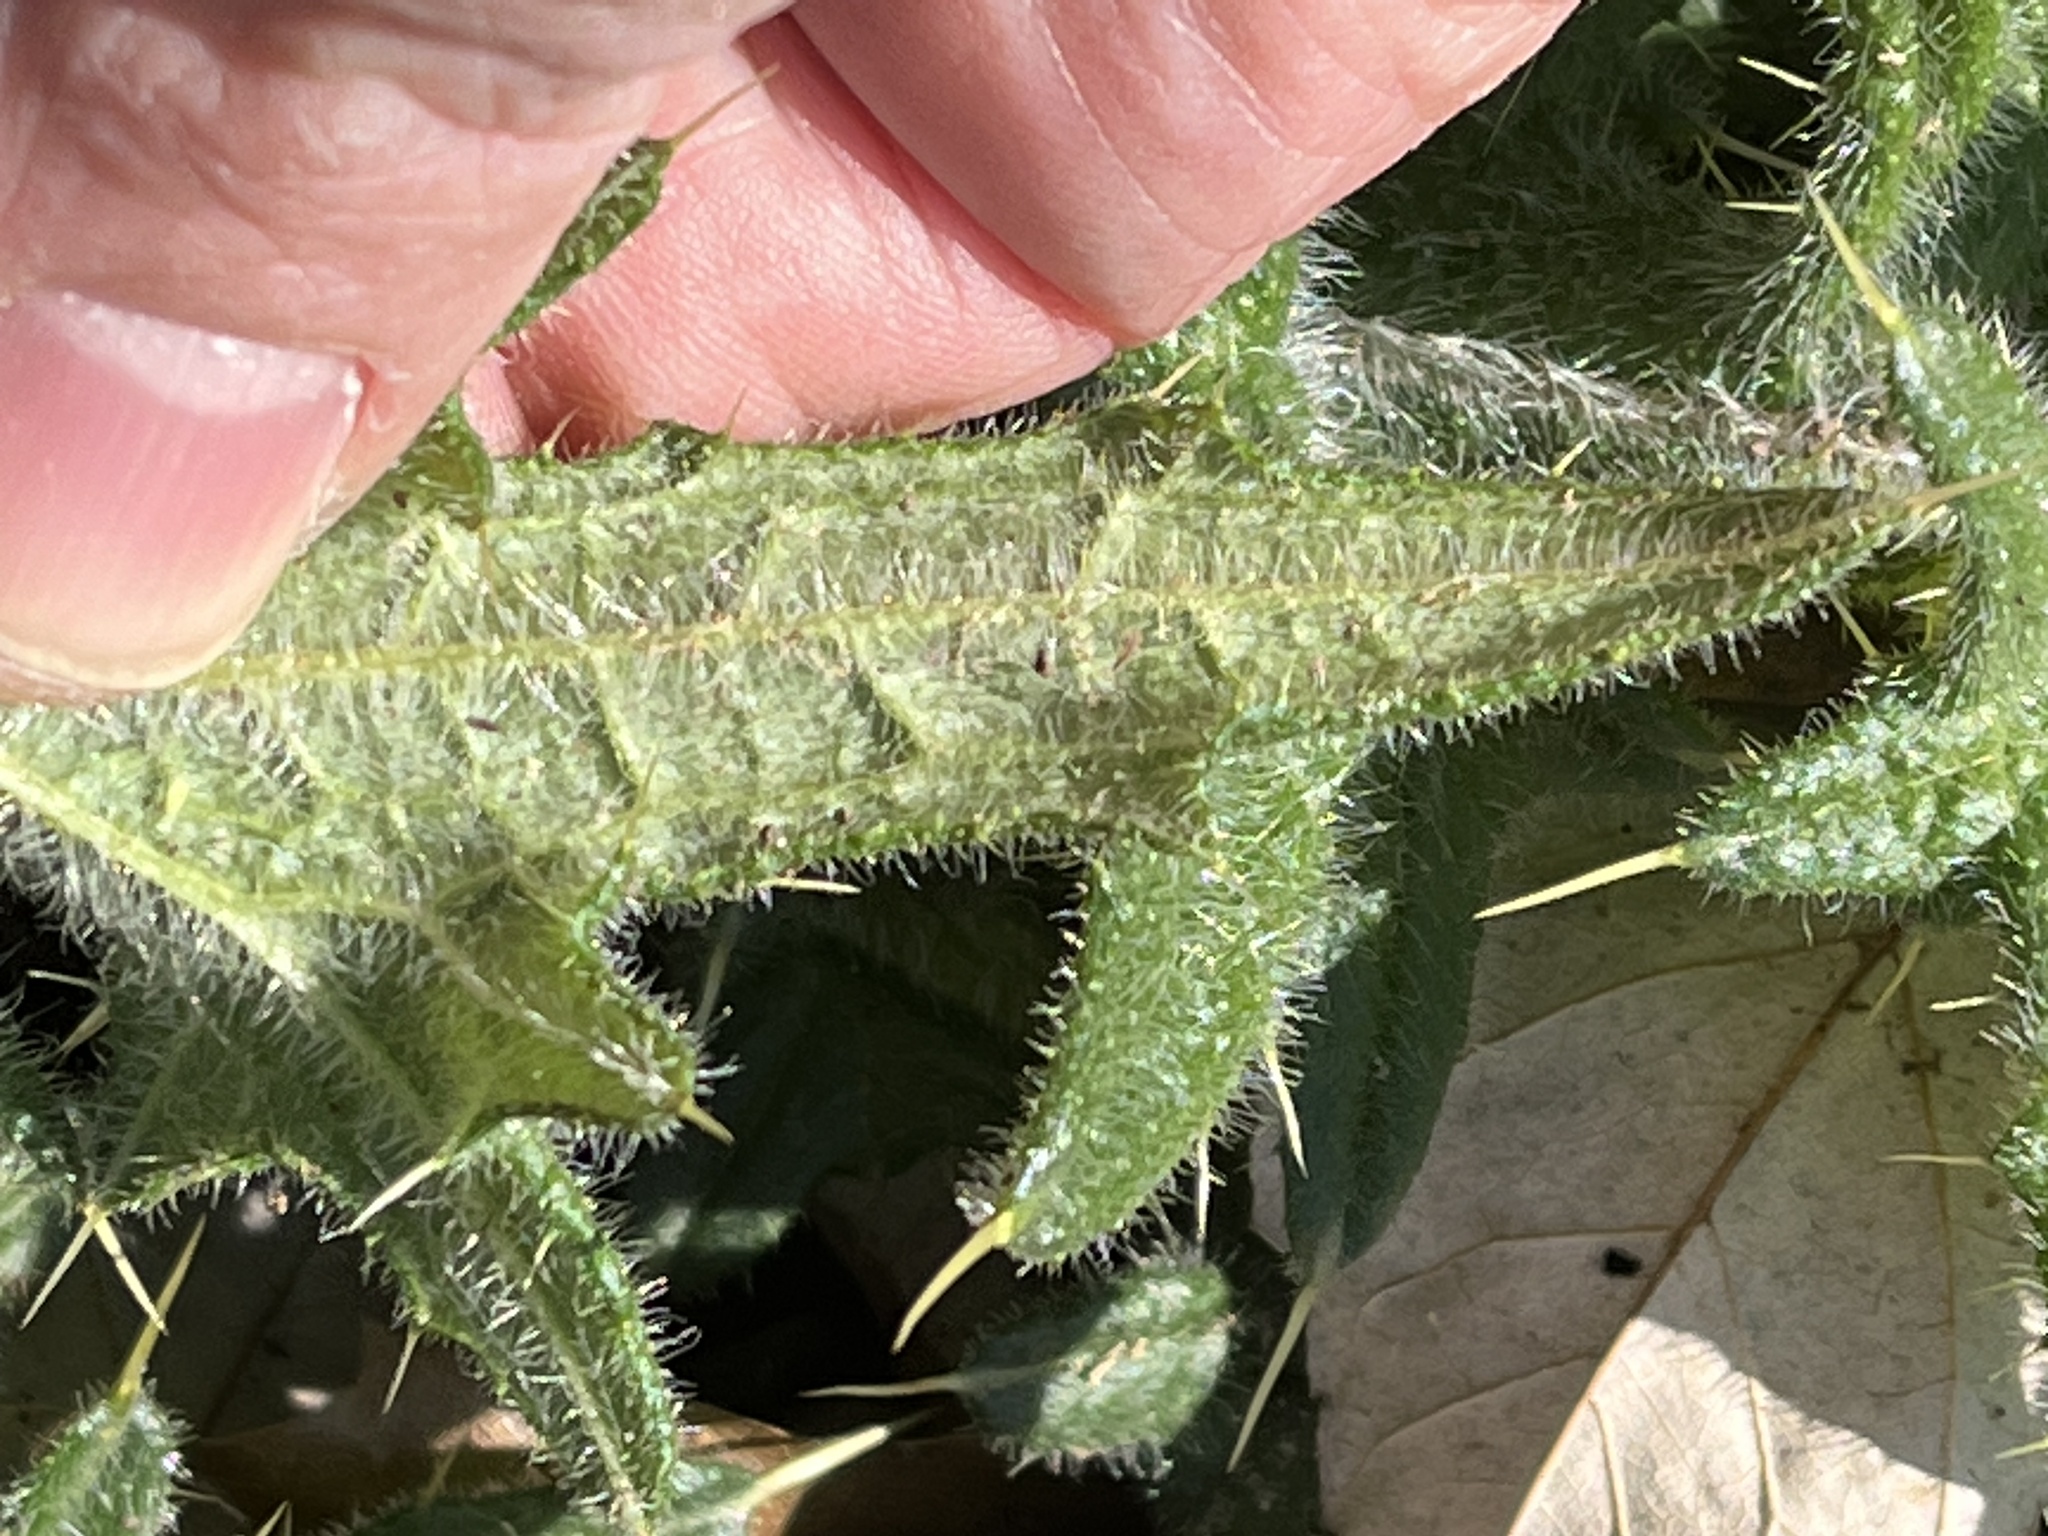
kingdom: Plantae
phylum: Tracheophyta
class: Magnoliopsida
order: Asterales
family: Asteraceae
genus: Cirsium
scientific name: Cirsium vulgare
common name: Bull thistle
